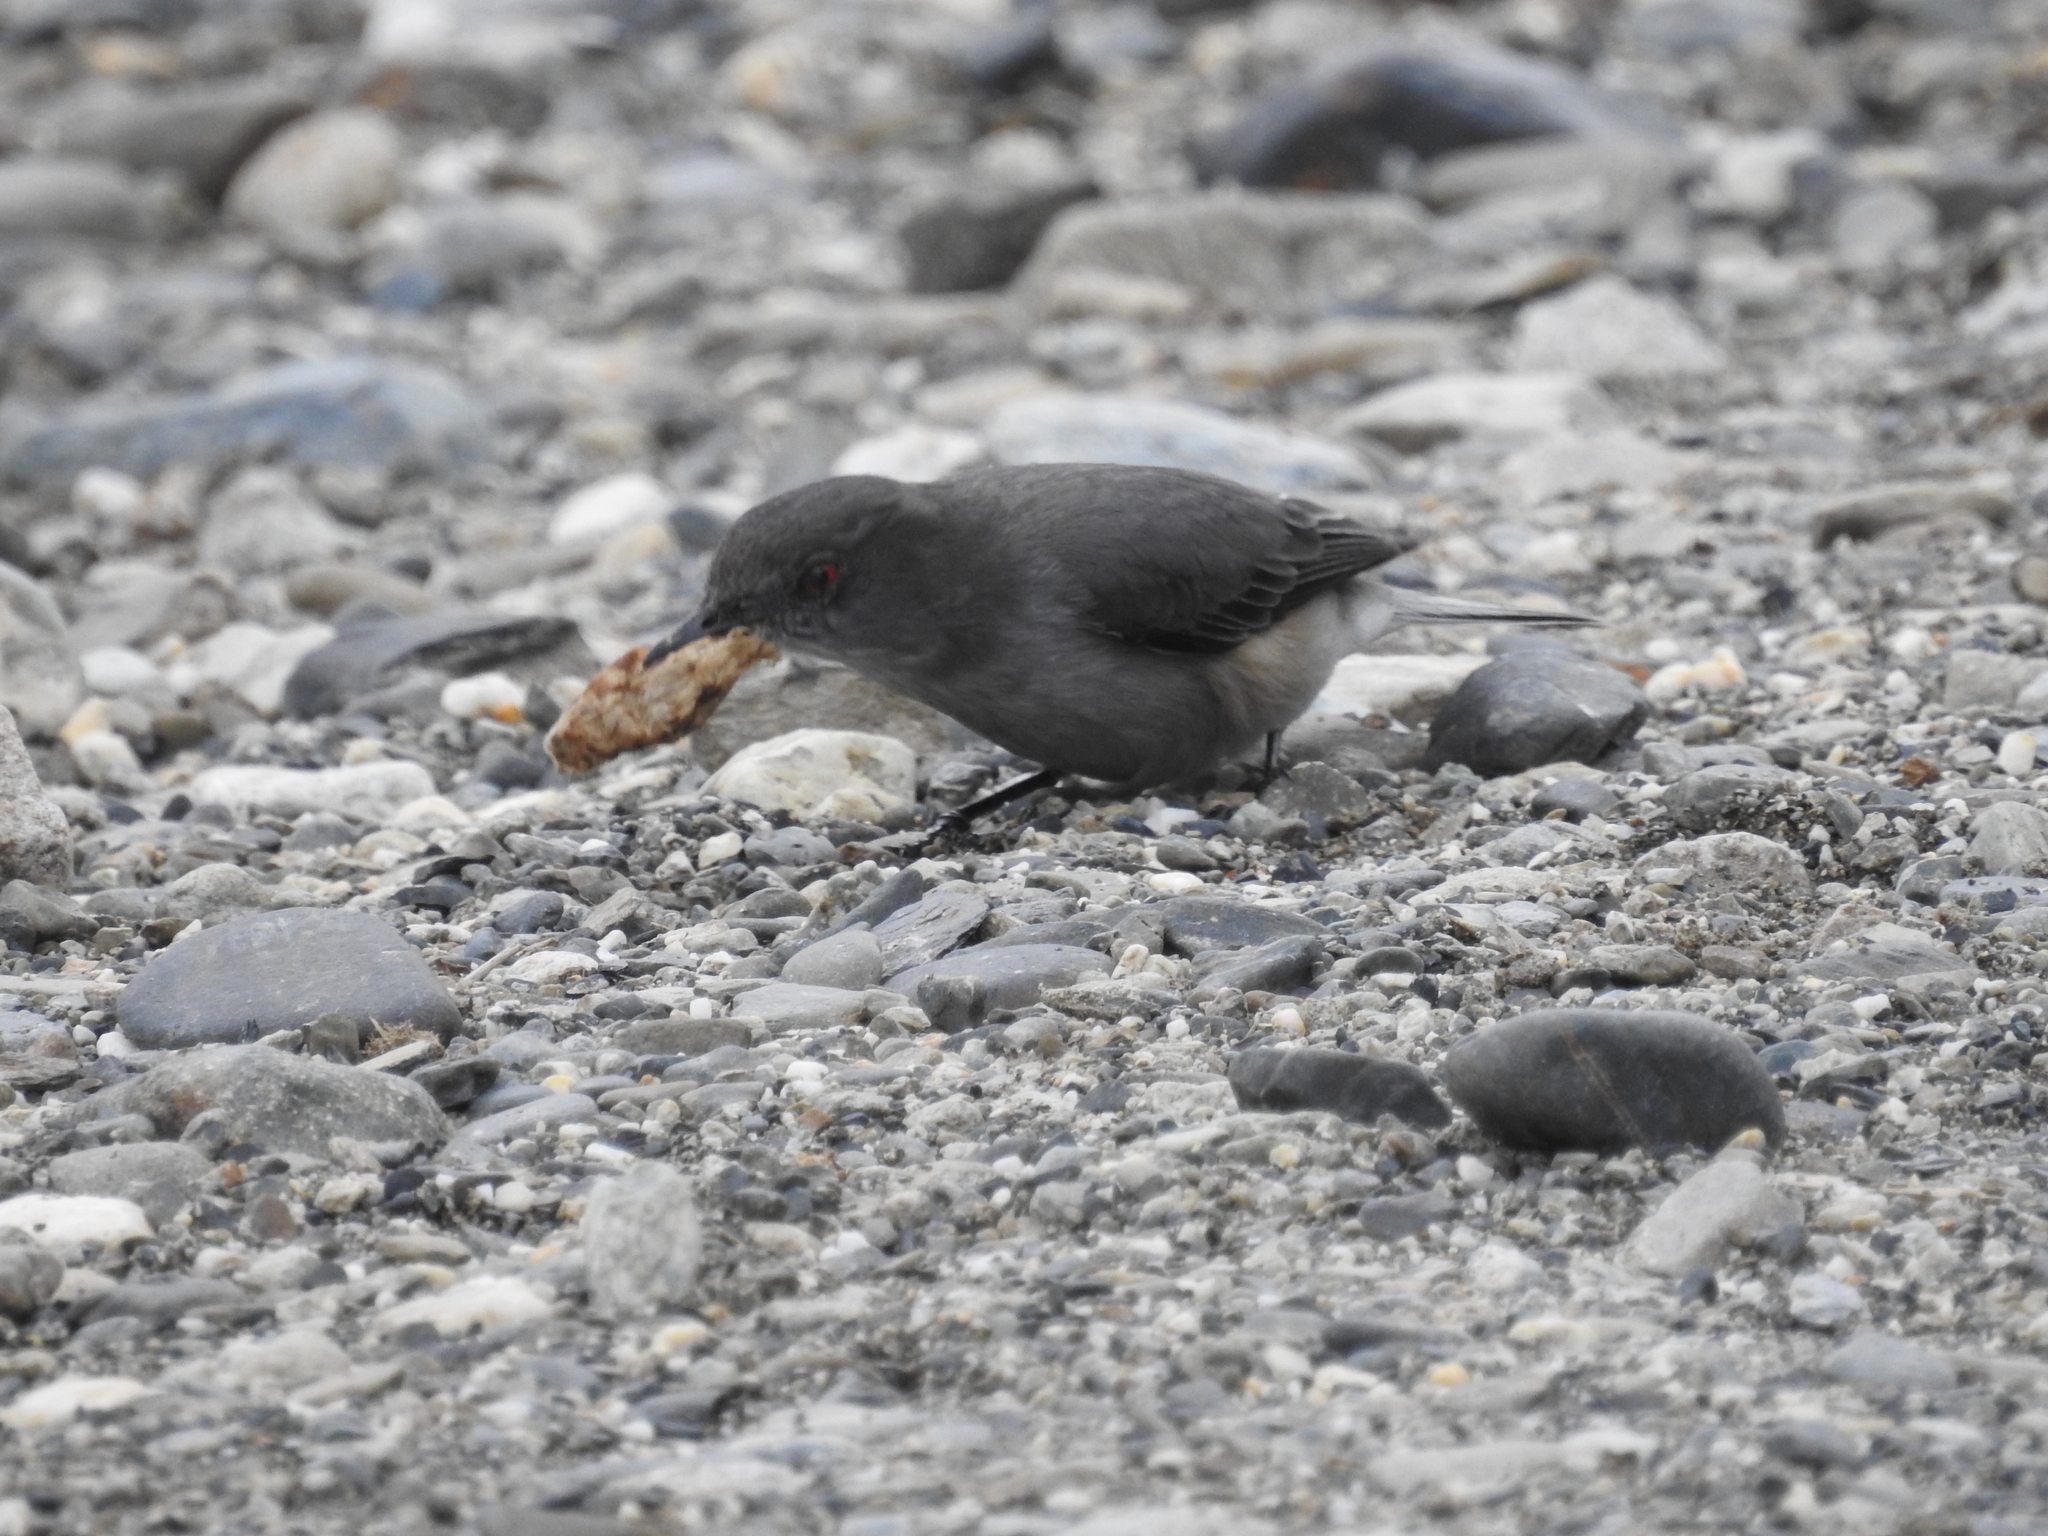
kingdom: Animalia
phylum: Chordata
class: Aves
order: Passeriformes
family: Tyrannidae
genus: Xolmis
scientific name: Xolmis pyrope
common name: Fire-eyed diucon
